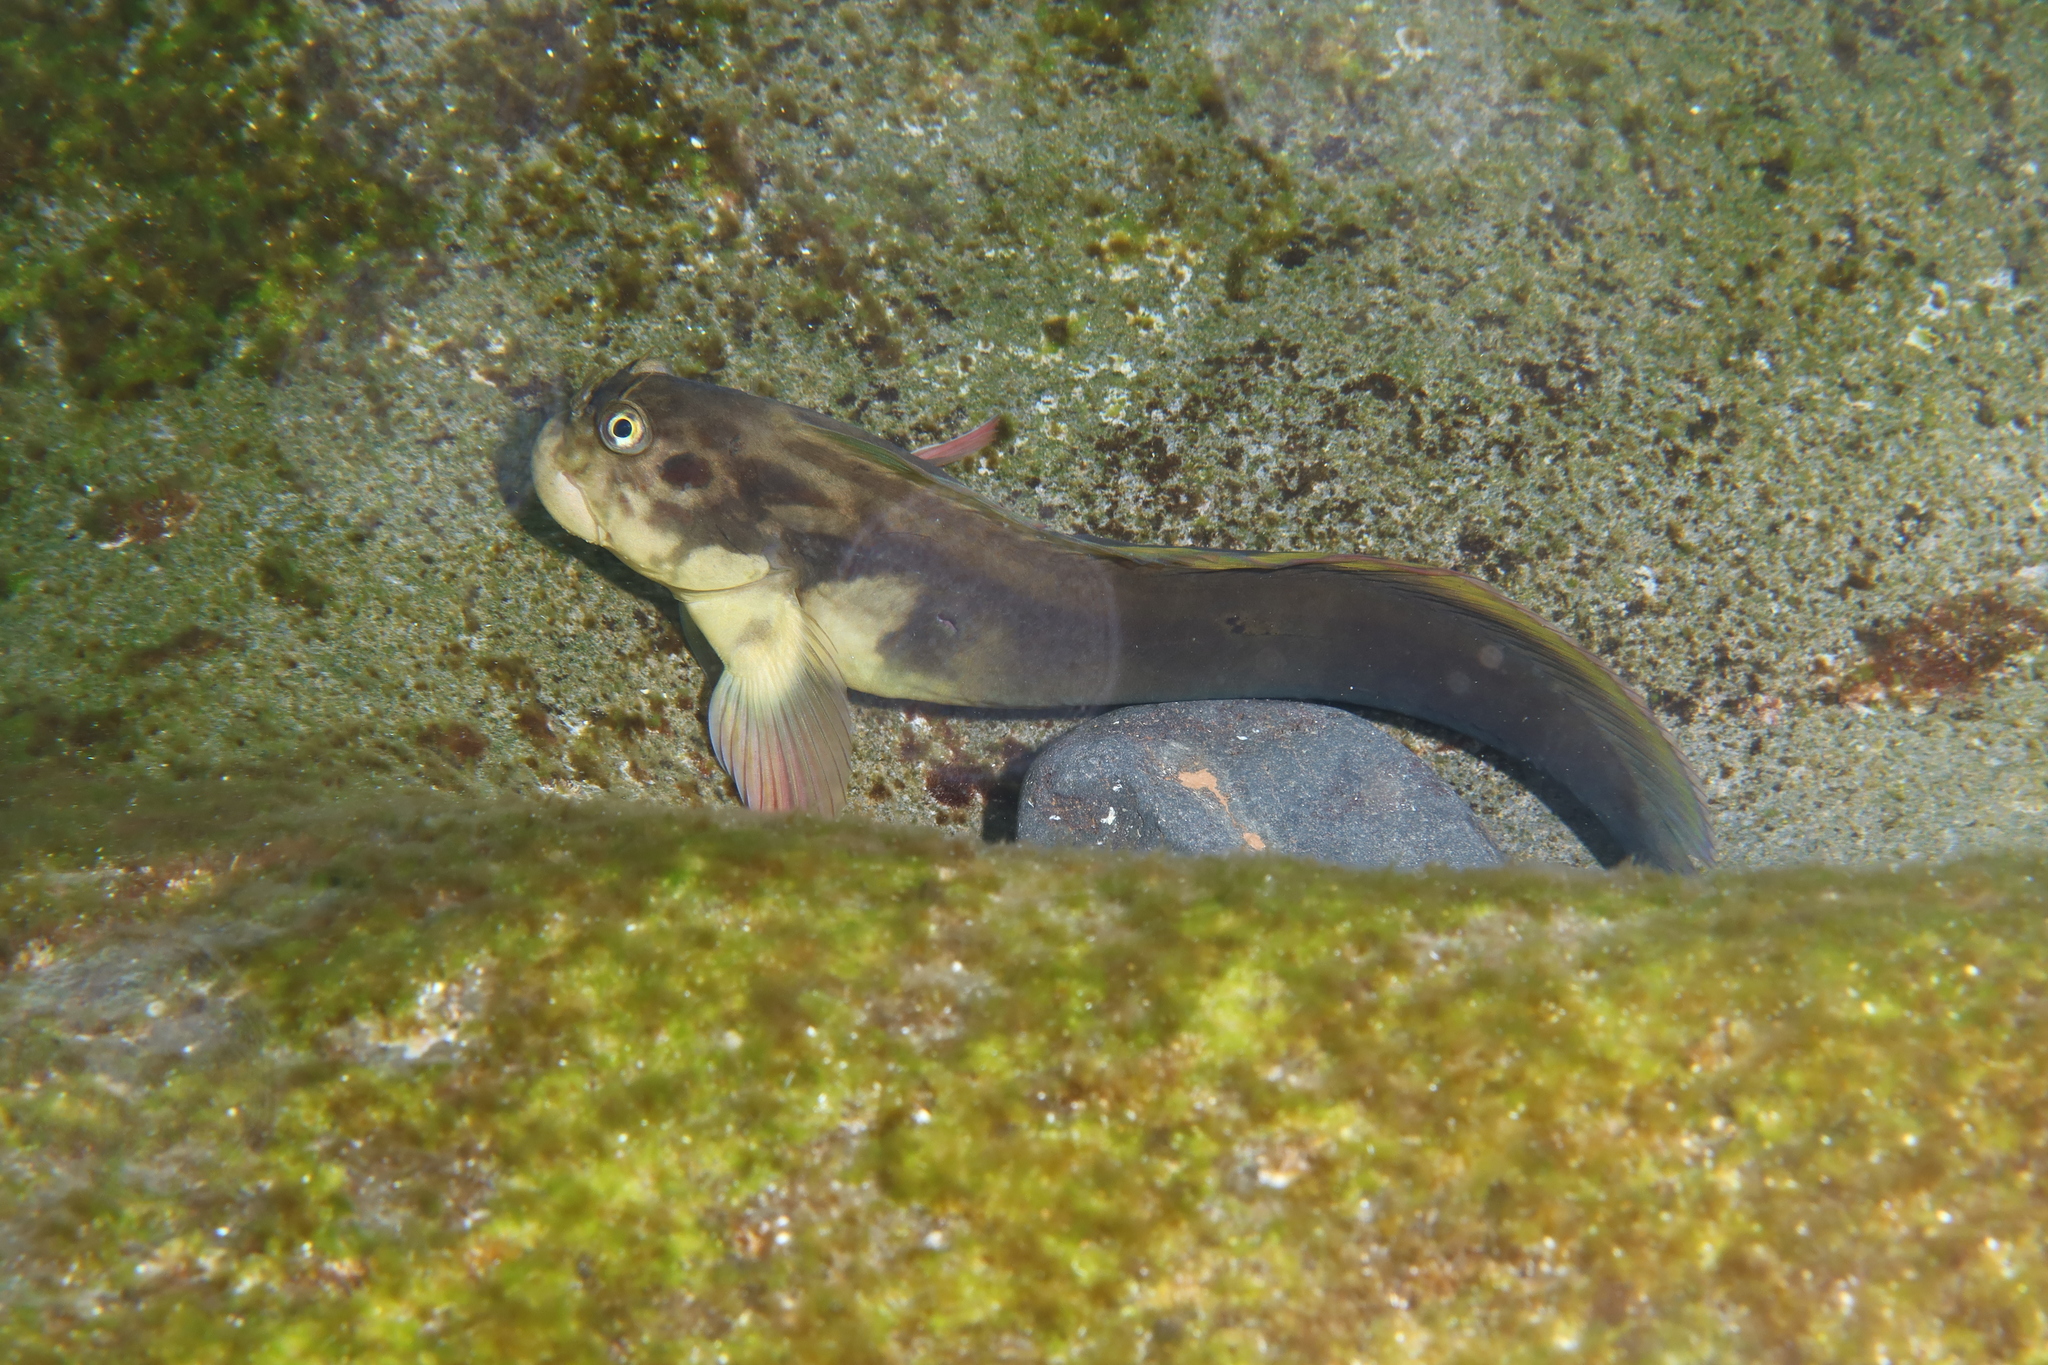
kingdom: Animalia
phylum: Chordata
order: Perciformes
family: Blenniidae
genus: Ophioblennius
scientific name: Ophioblennius atlanticus
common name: Redlip blenny
